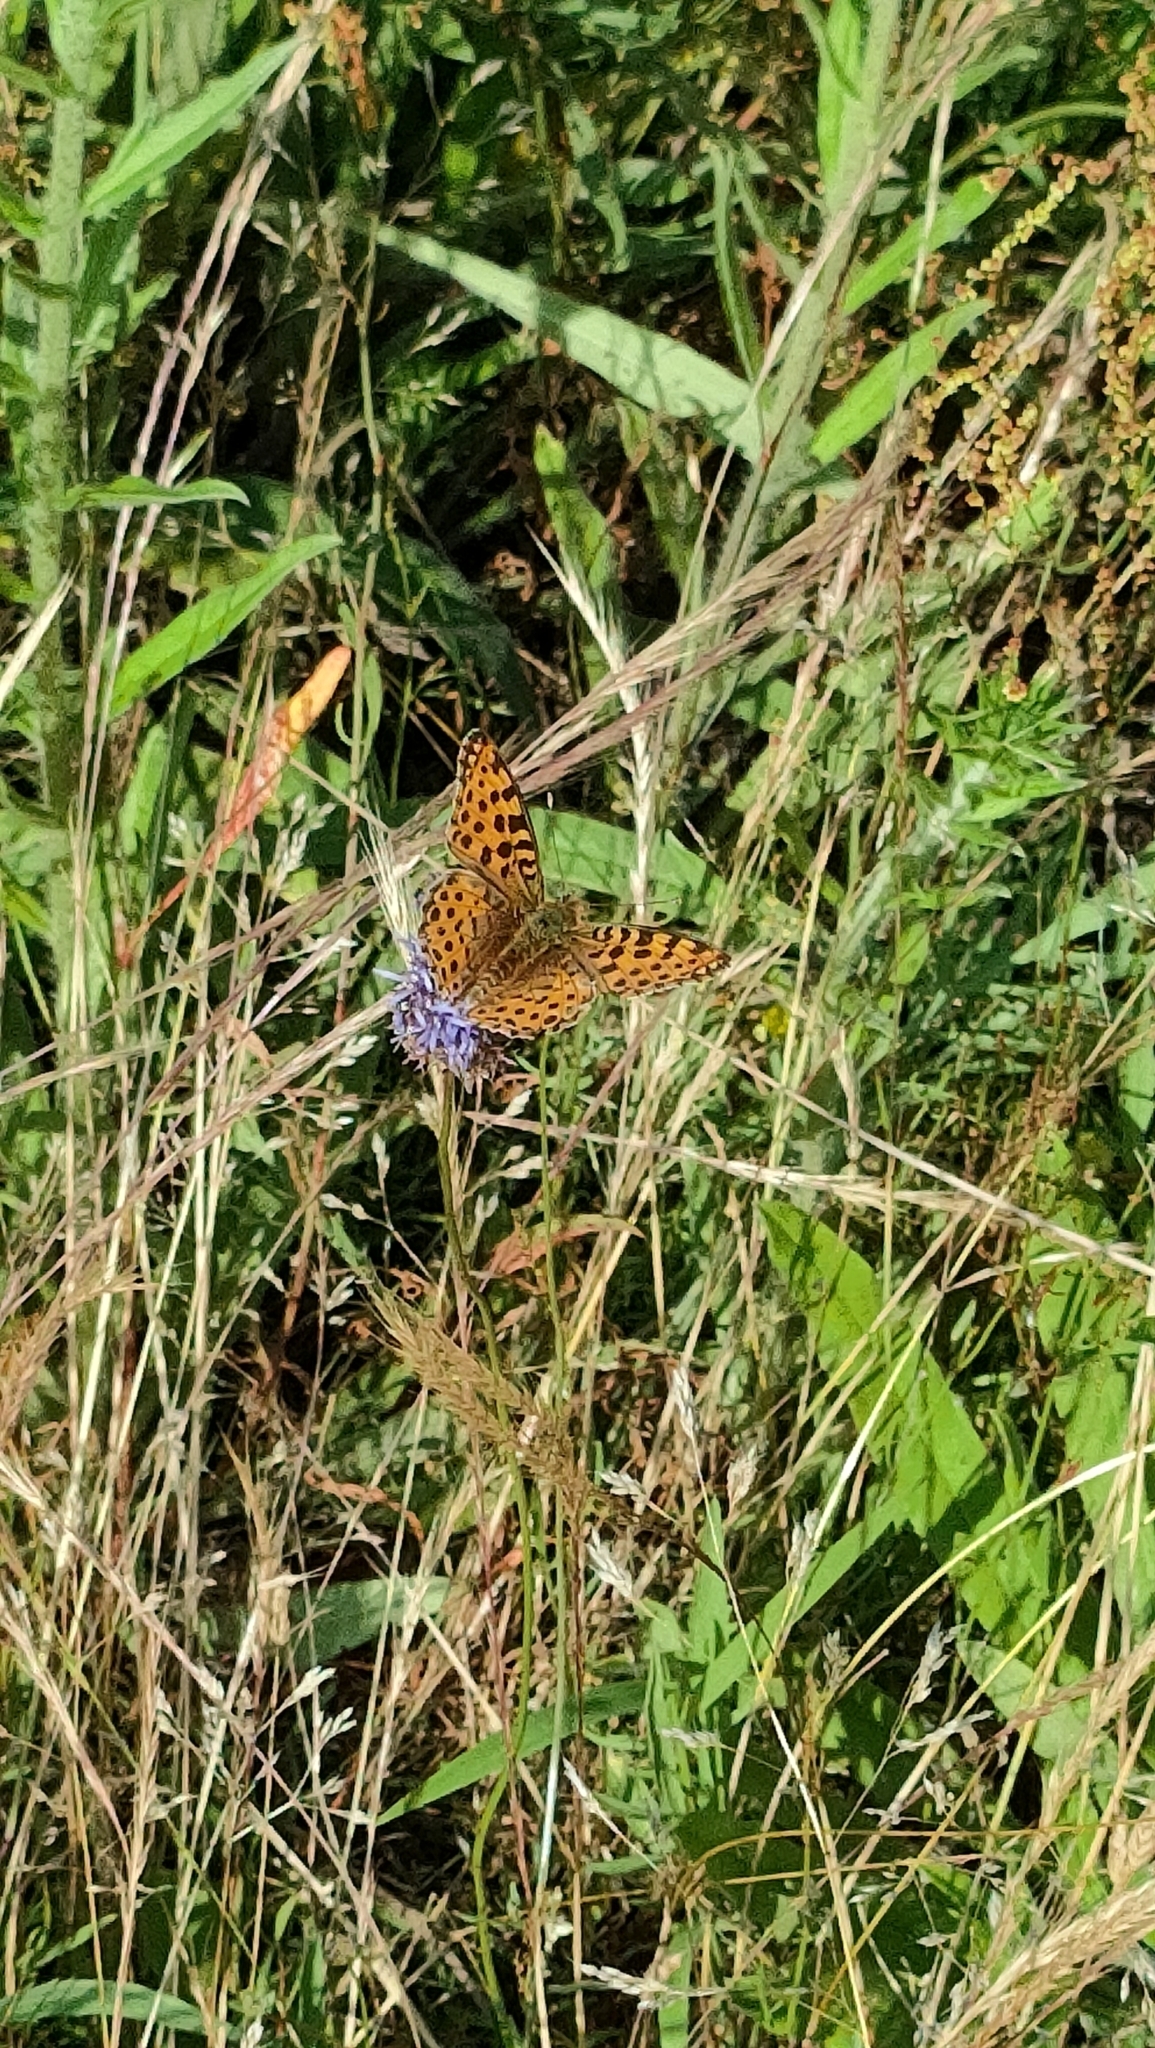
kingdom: Animalia
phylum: Arthropoda
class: Insecta
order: Lepidoptera
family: Nymphalidae
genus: Issoria
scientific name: Issoria lathonia
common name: Queen of spain fritillary
